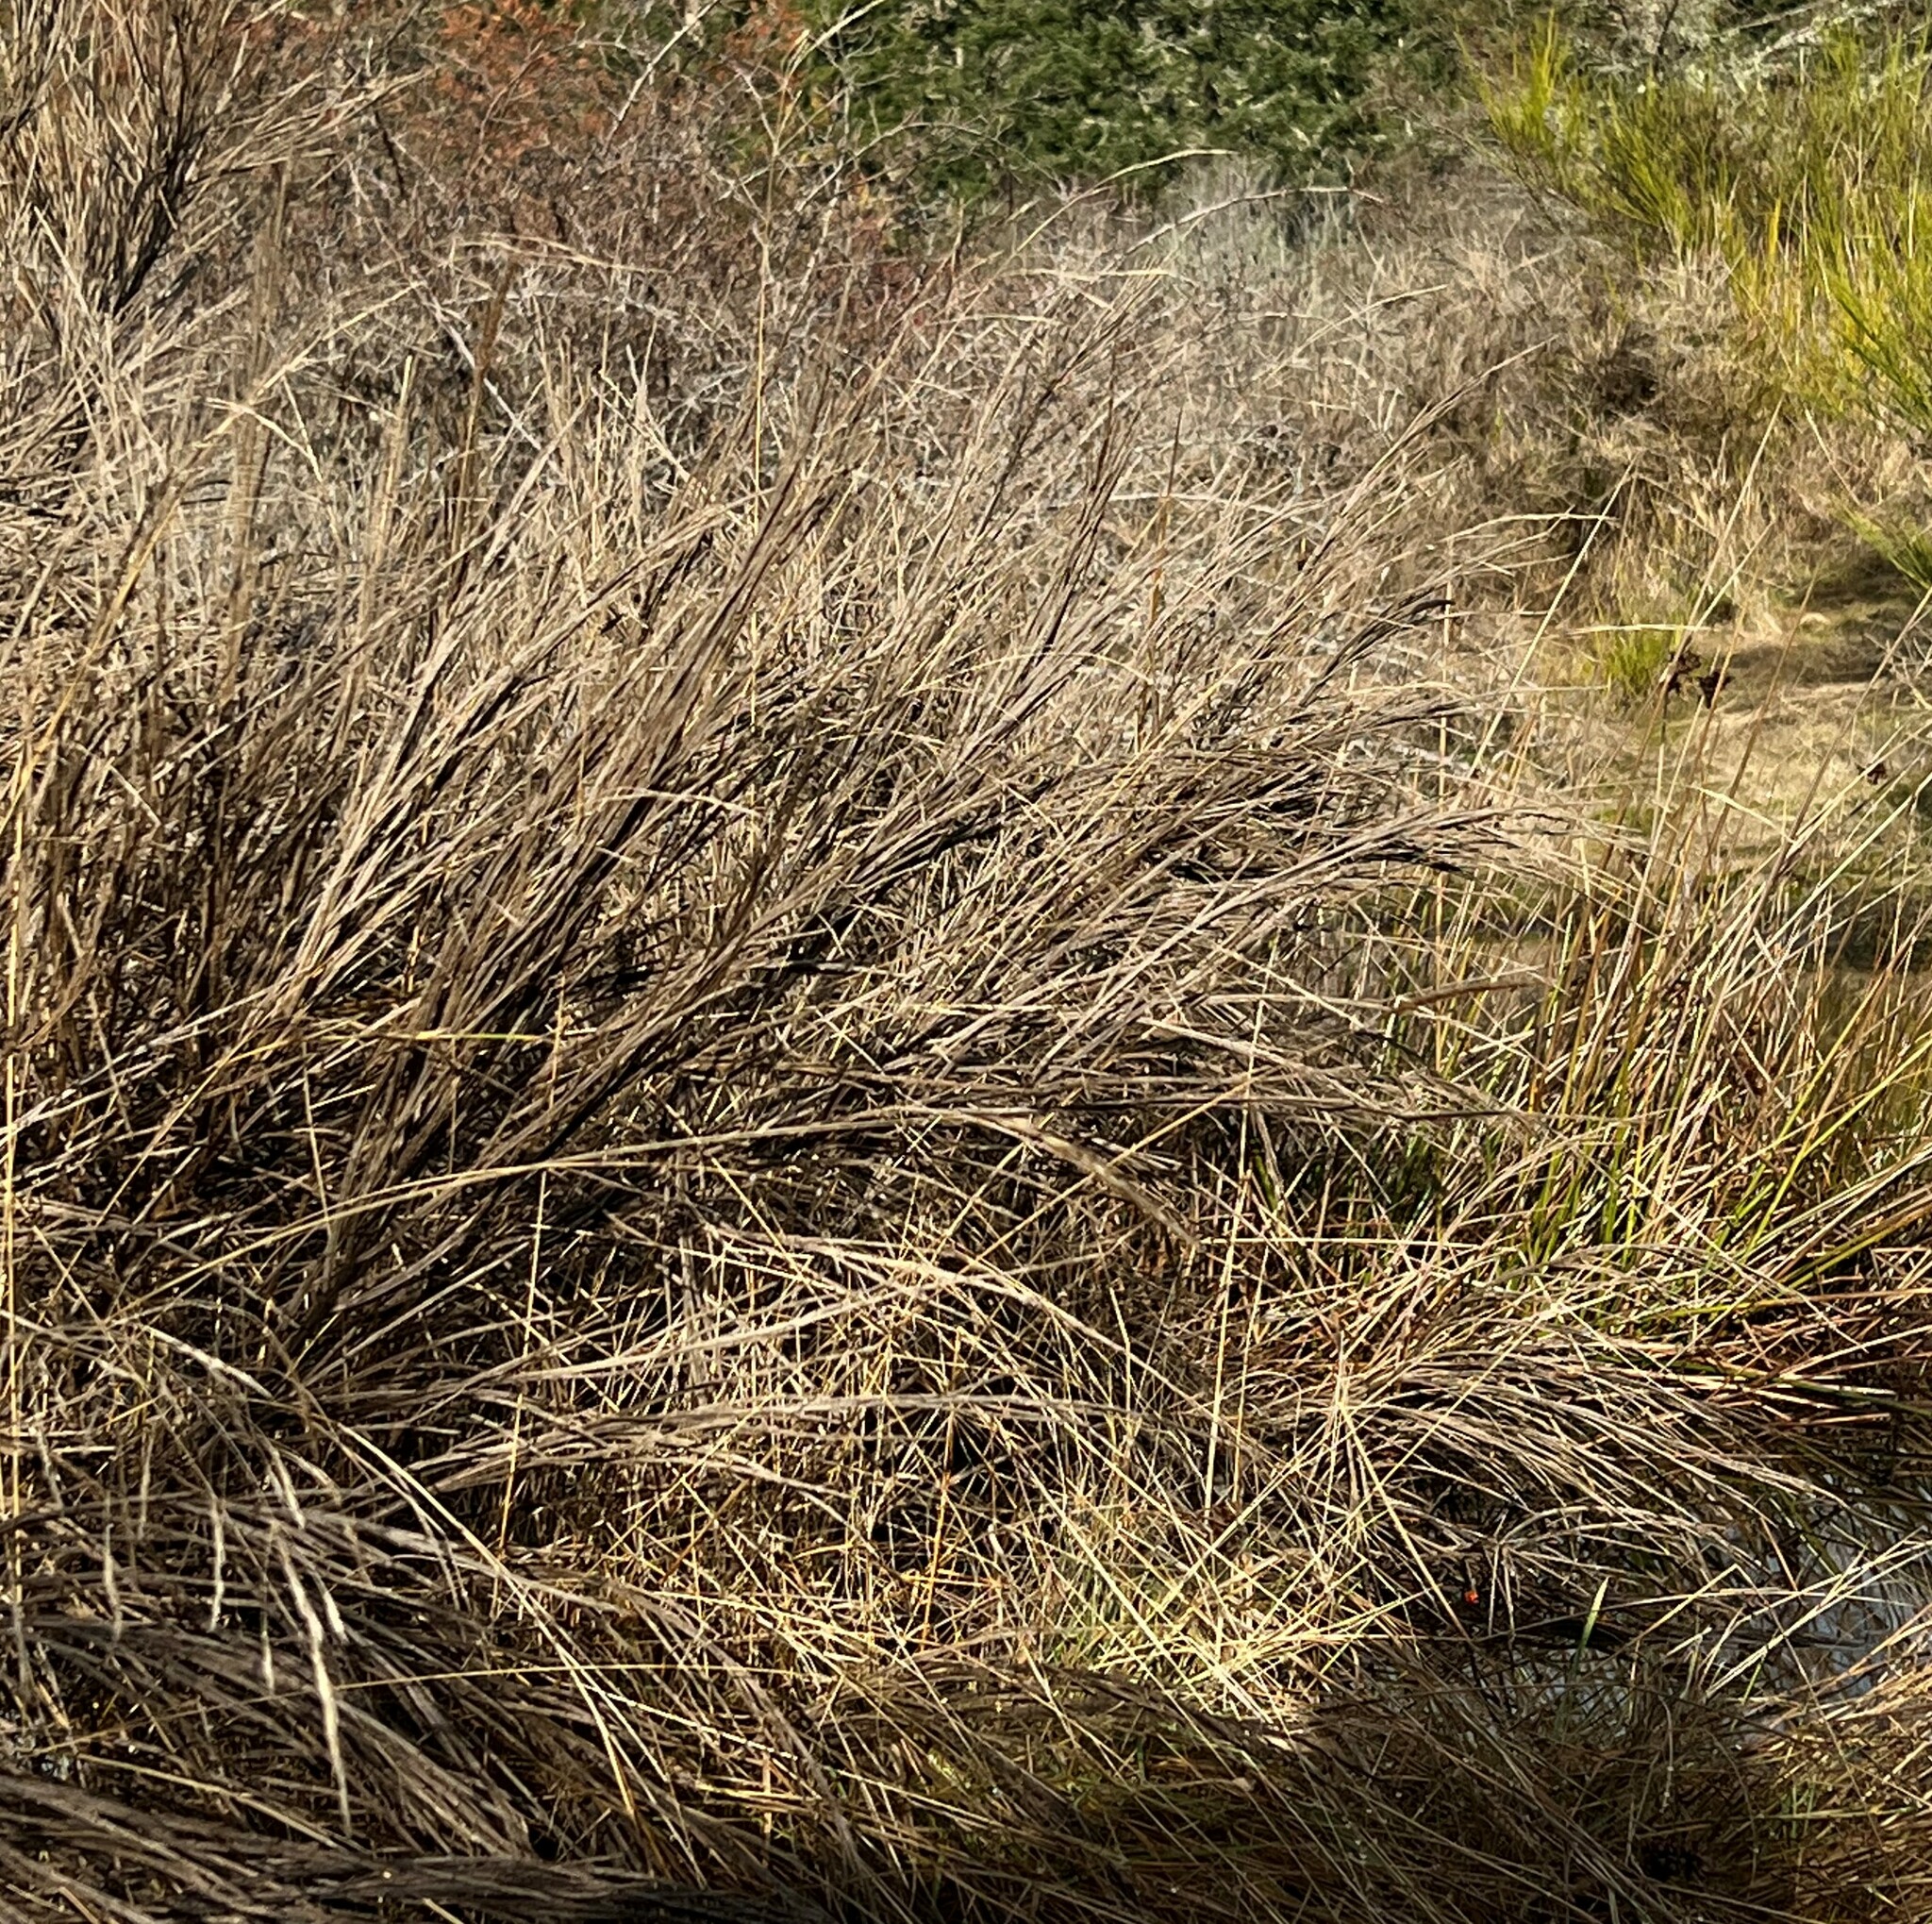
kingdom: Plantae
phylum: Tracheophyta
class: Magnoliopsida
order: Fabales
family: Fabaceae
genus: Cytisus
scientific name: Cytisus scoparius
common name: Scotch broom
